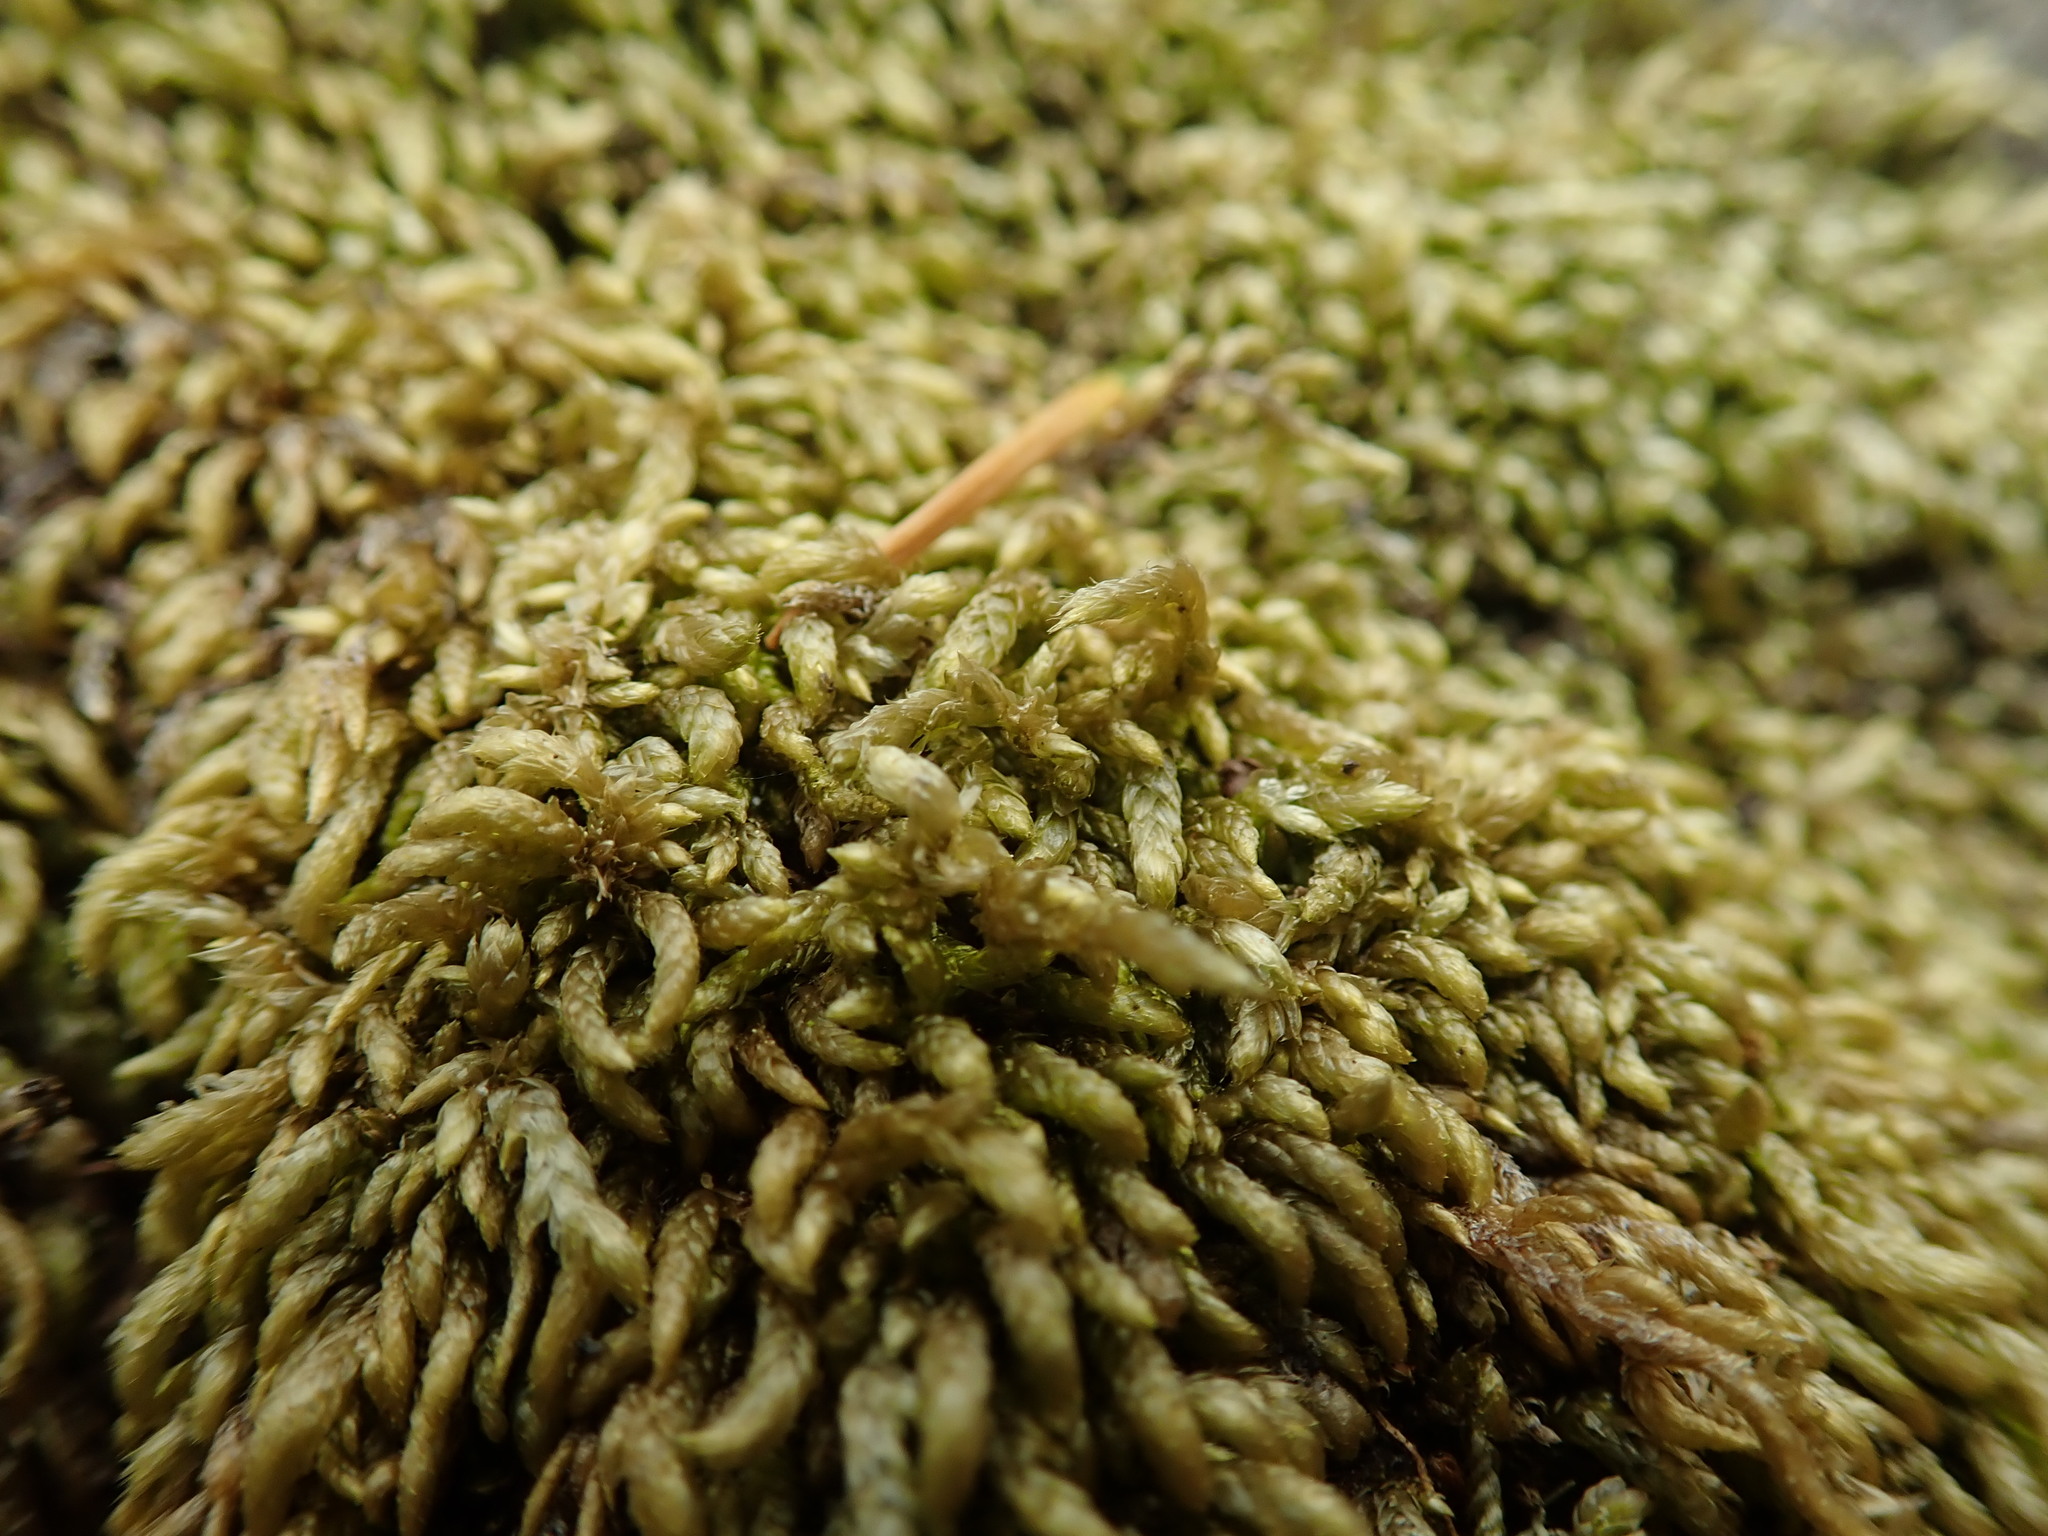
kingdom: Plantae
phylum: Bryophyta
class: Bryopsida
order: Hypnales
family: Brachytheciaceae
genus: Scleropodium
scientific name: Scleropodium touretii
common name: Glass-wort feather-moss
